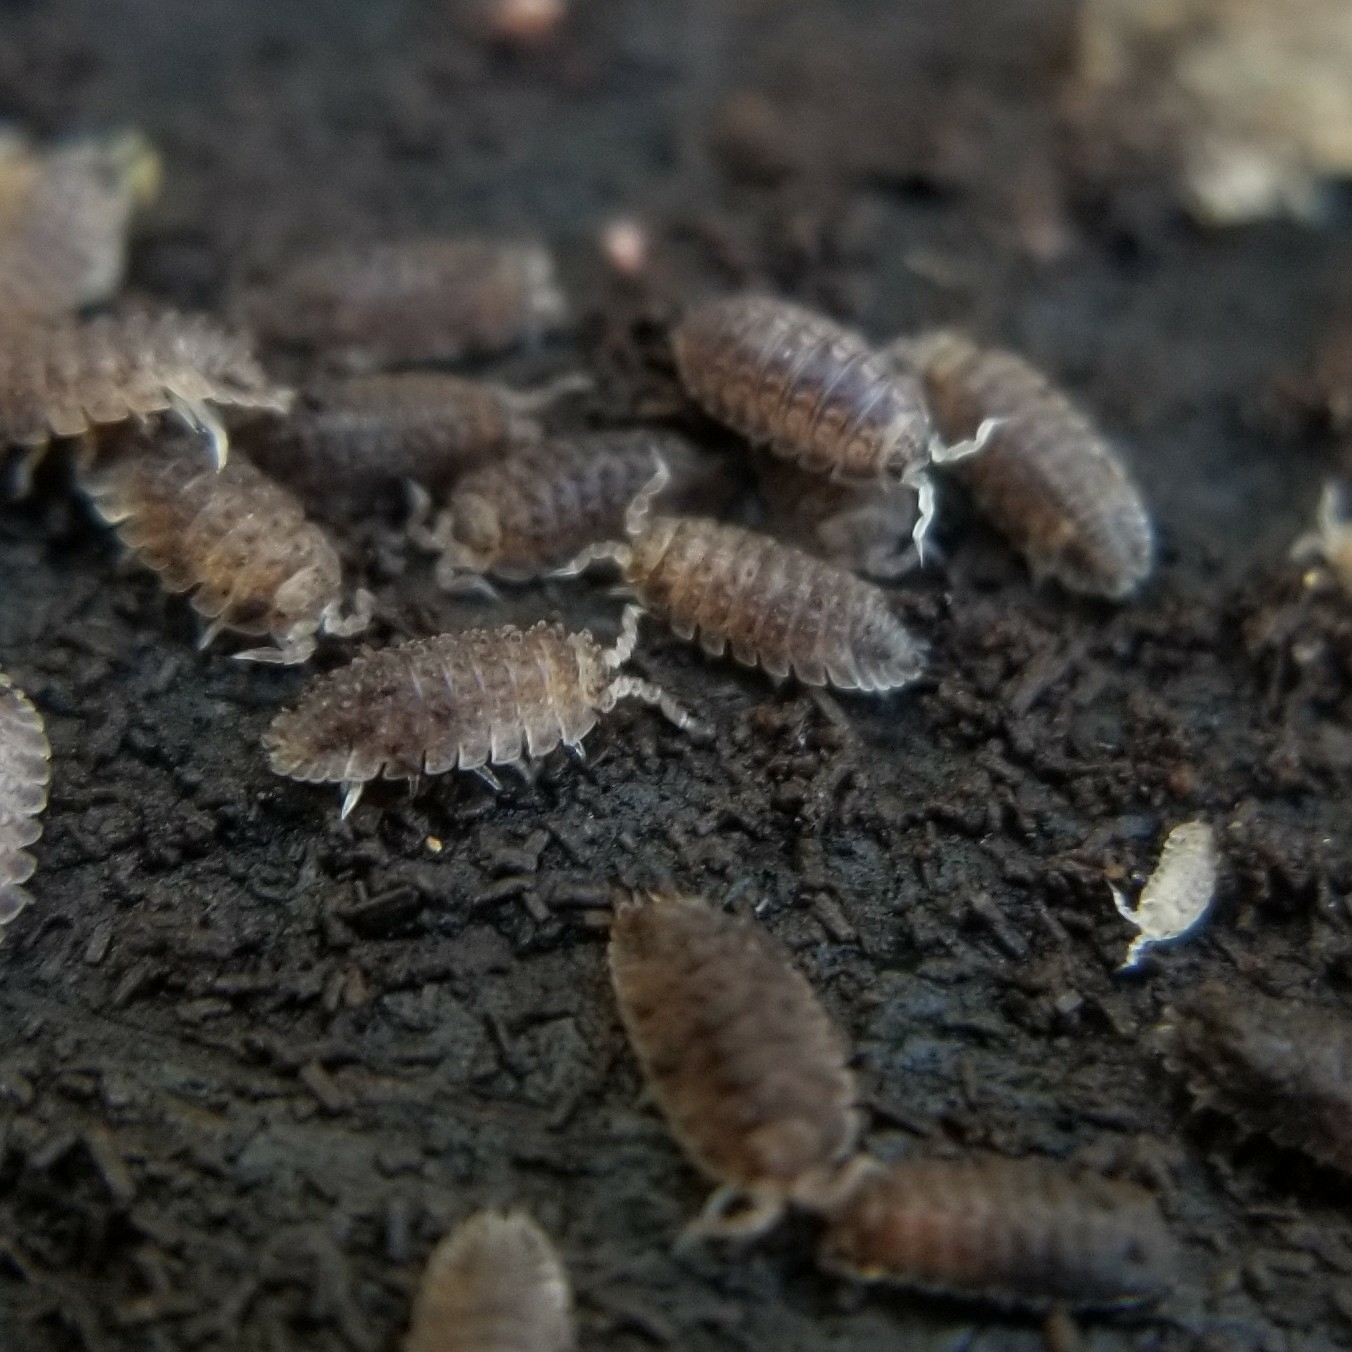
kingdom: Animalia
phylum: Arthropoda
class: Malacostraca
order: Isopoda
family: Detonidae
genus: Armadilloniscus
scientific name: Armadilloniscus coronacapitalis
